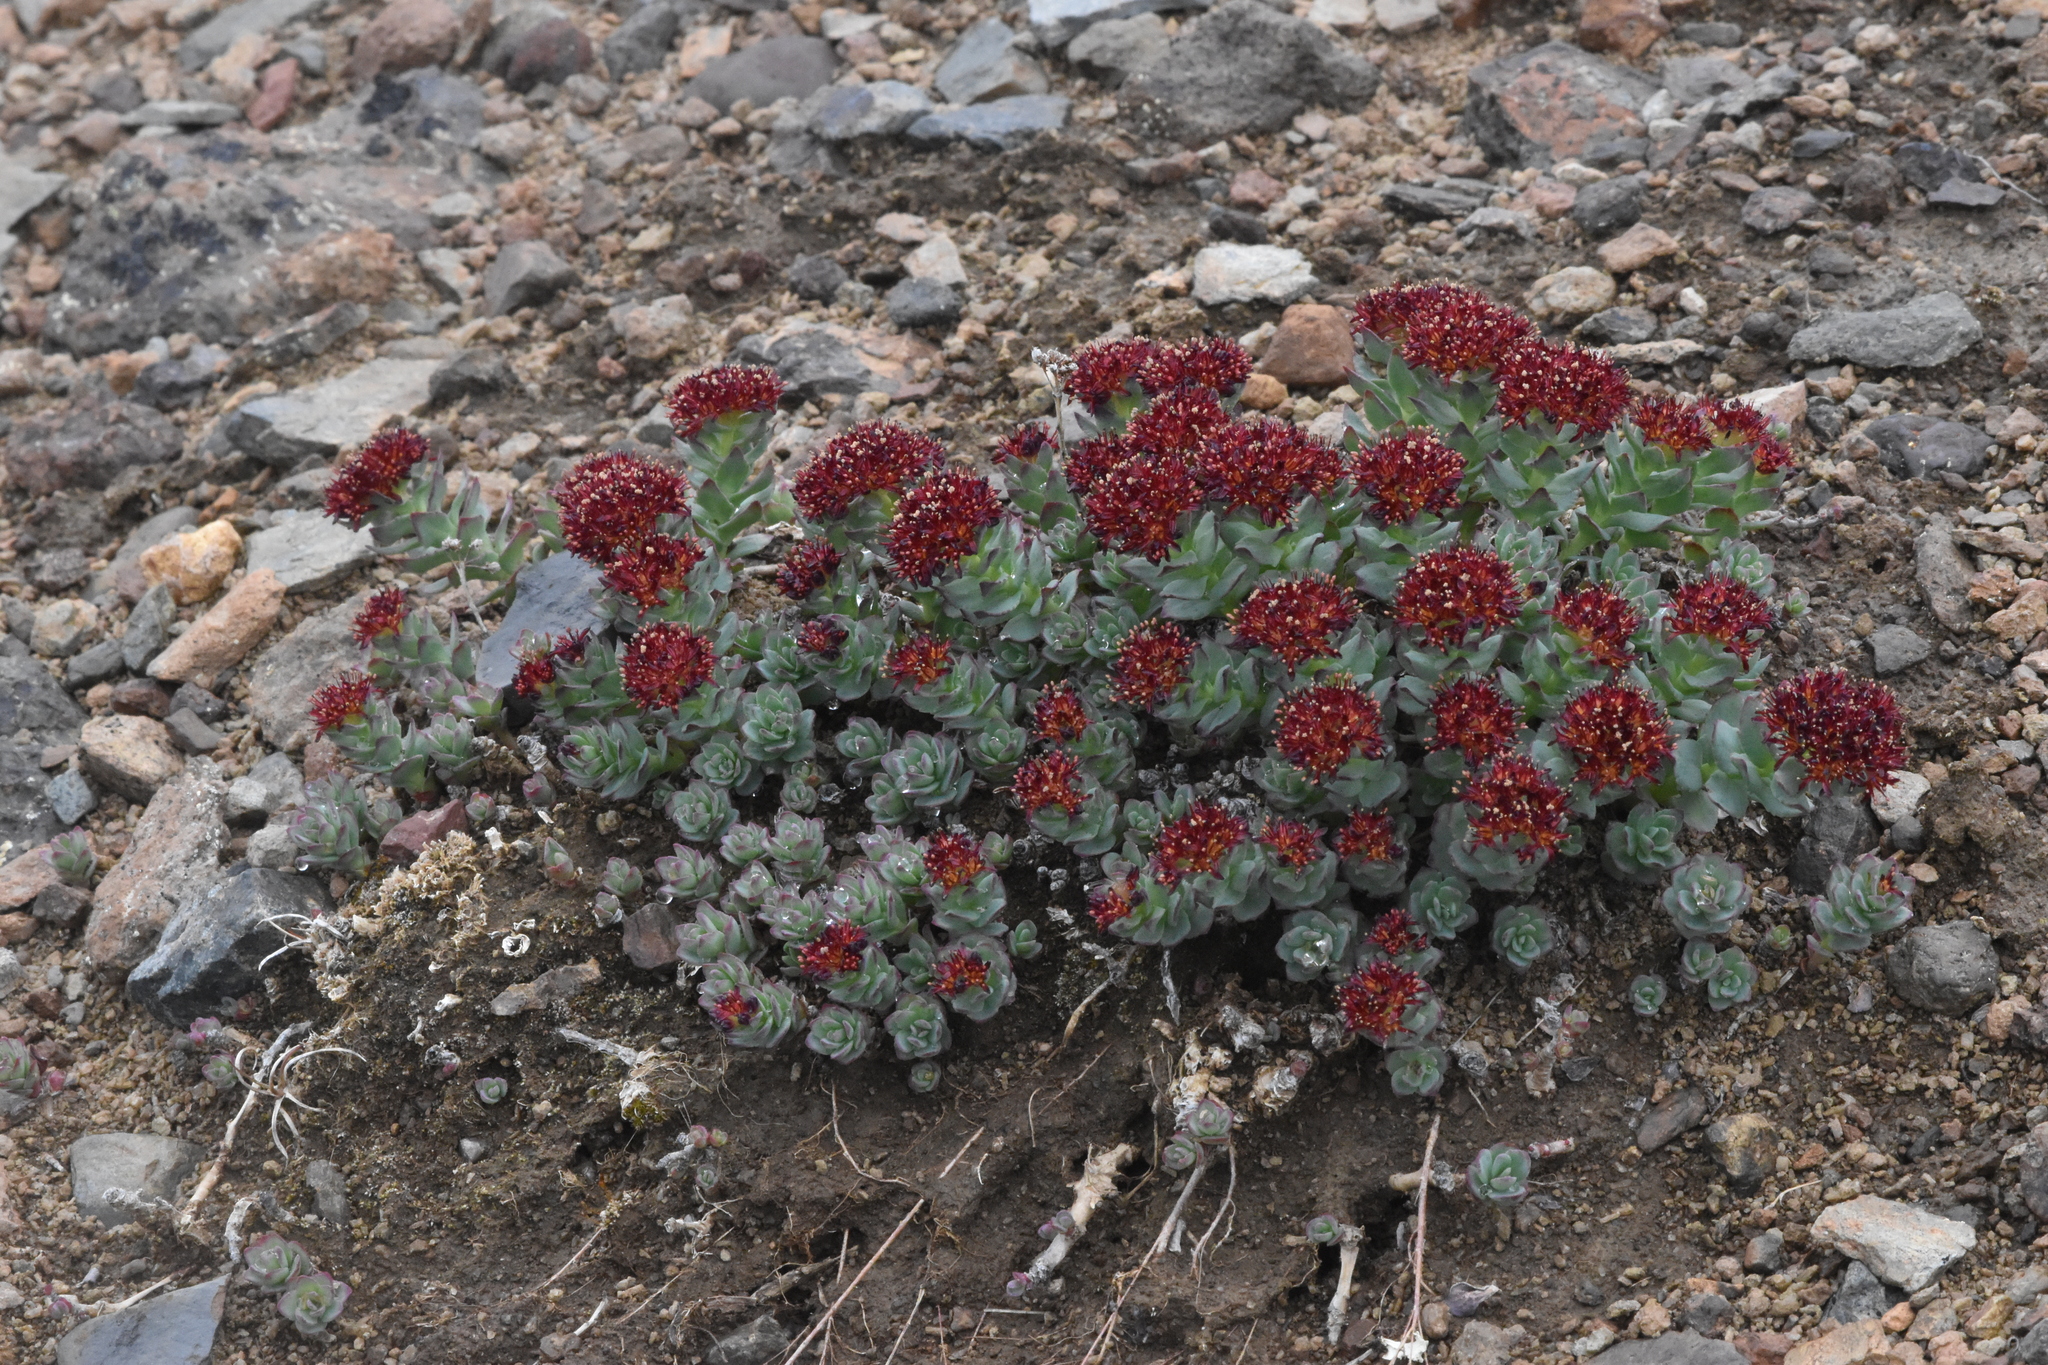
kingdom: Plantae
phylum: Tracheophyta
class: Magnoliopsida
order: Saxifragales
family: Crassulaceae
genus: Rhodiola
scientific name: Rhodiola integrifolia
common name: Western roseroot
